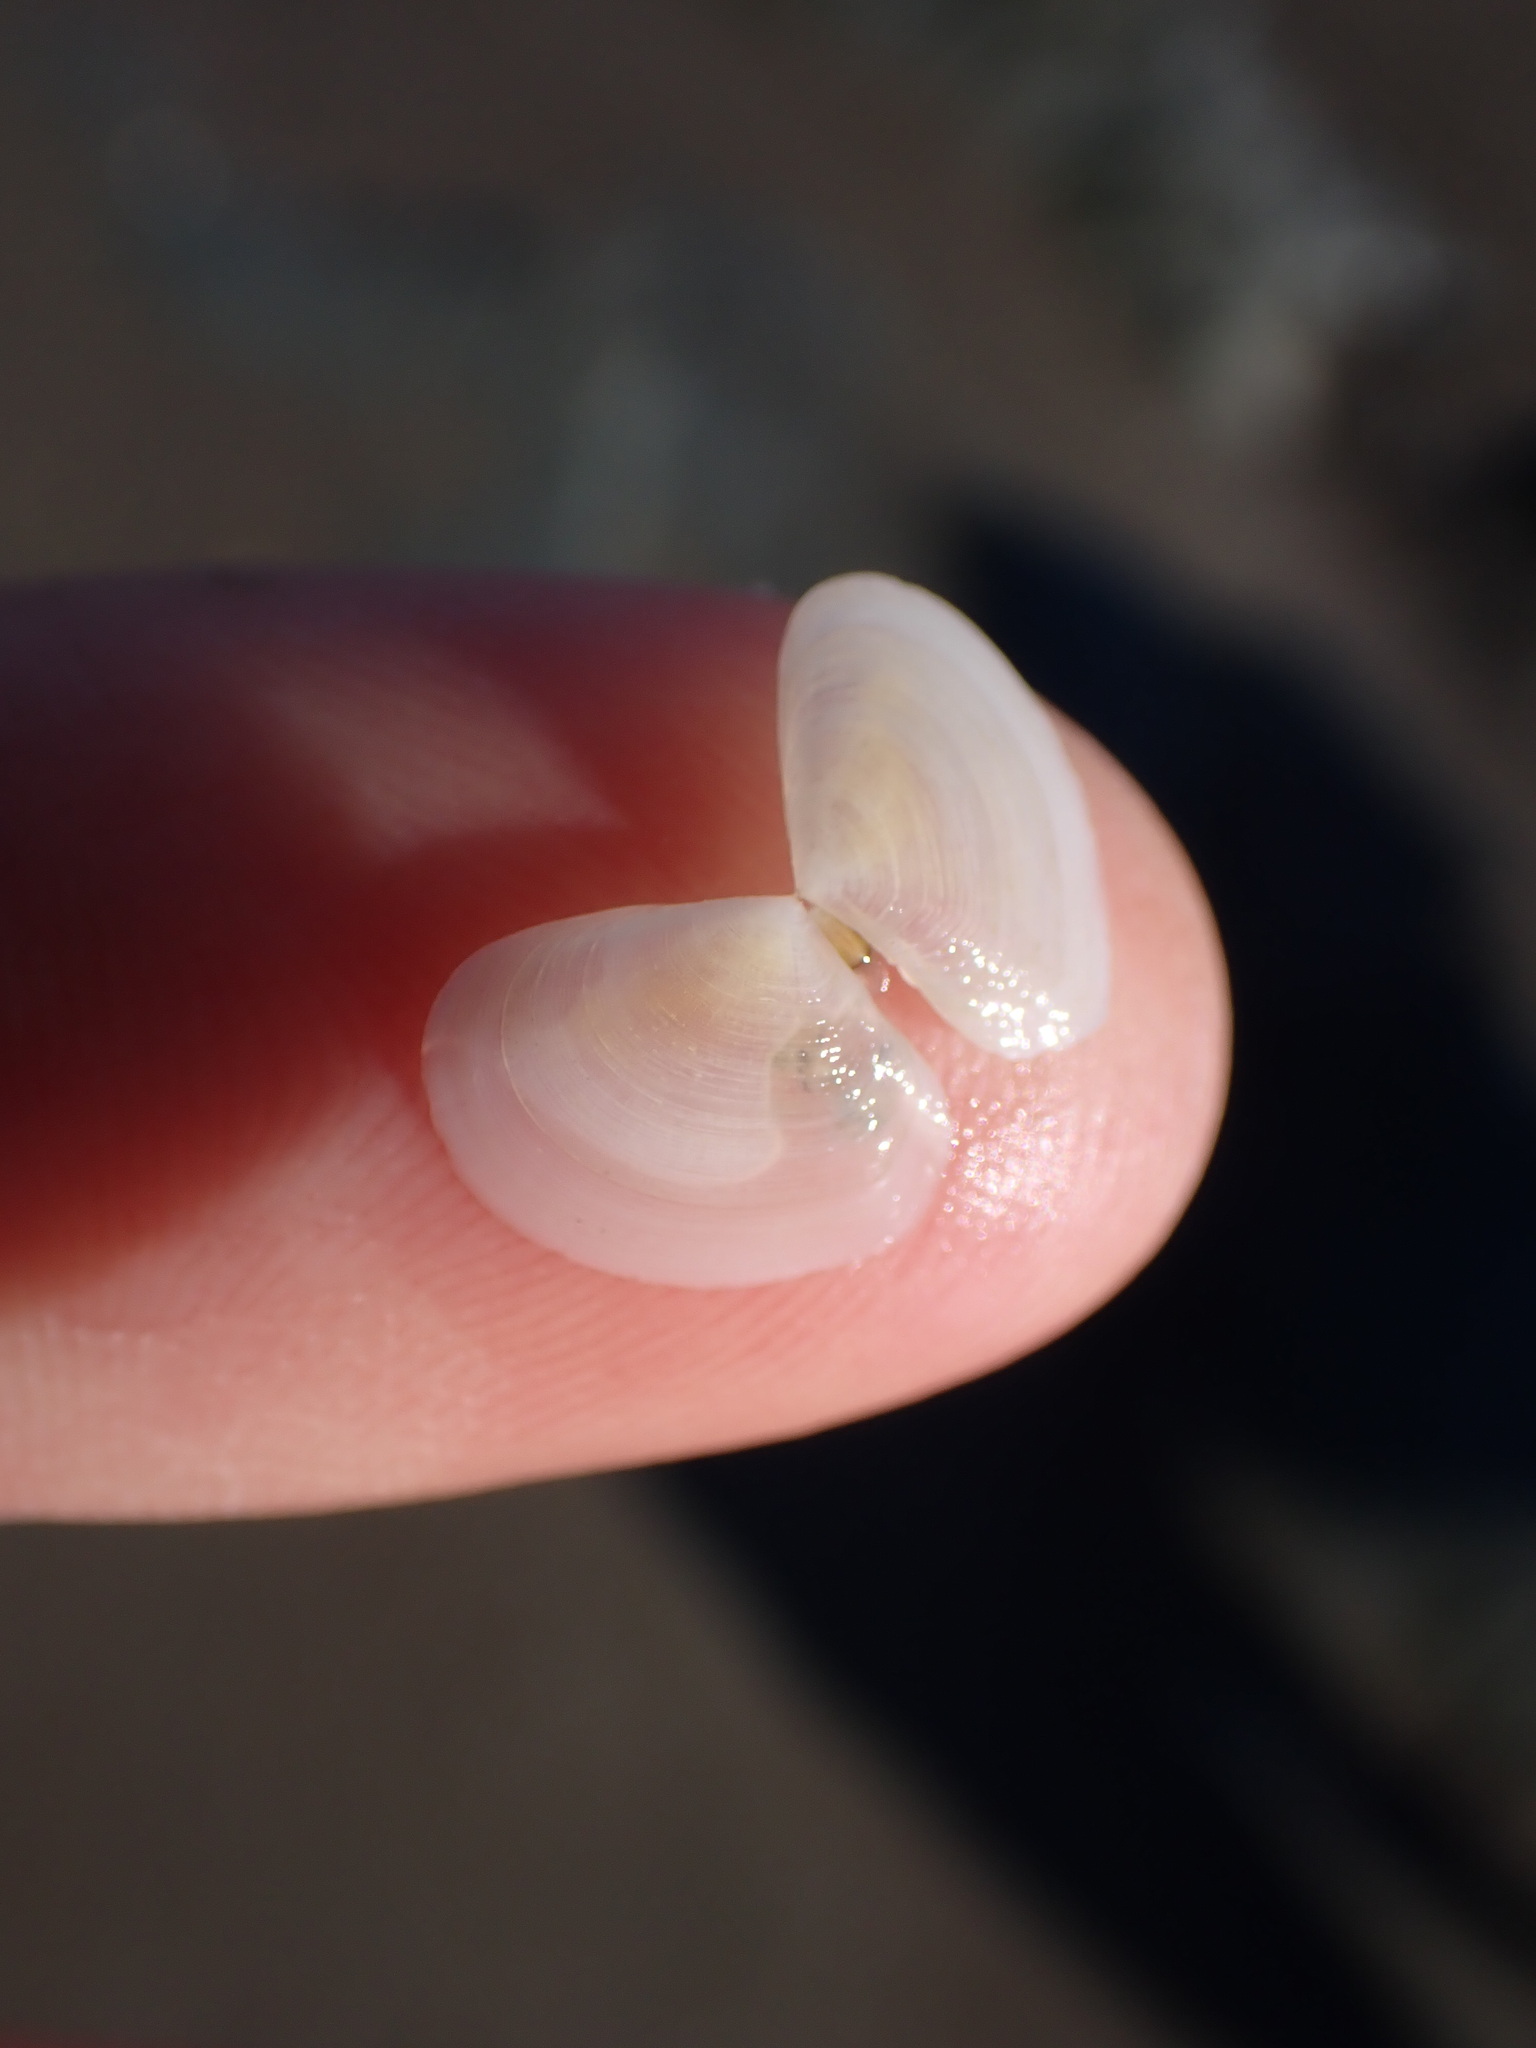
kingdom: Animalia
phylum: Mollusca
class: Bivalvia
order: Cardiida
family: Tellinidae
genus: Pseudarcopagia
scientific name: Pseudarcopagia disculus
